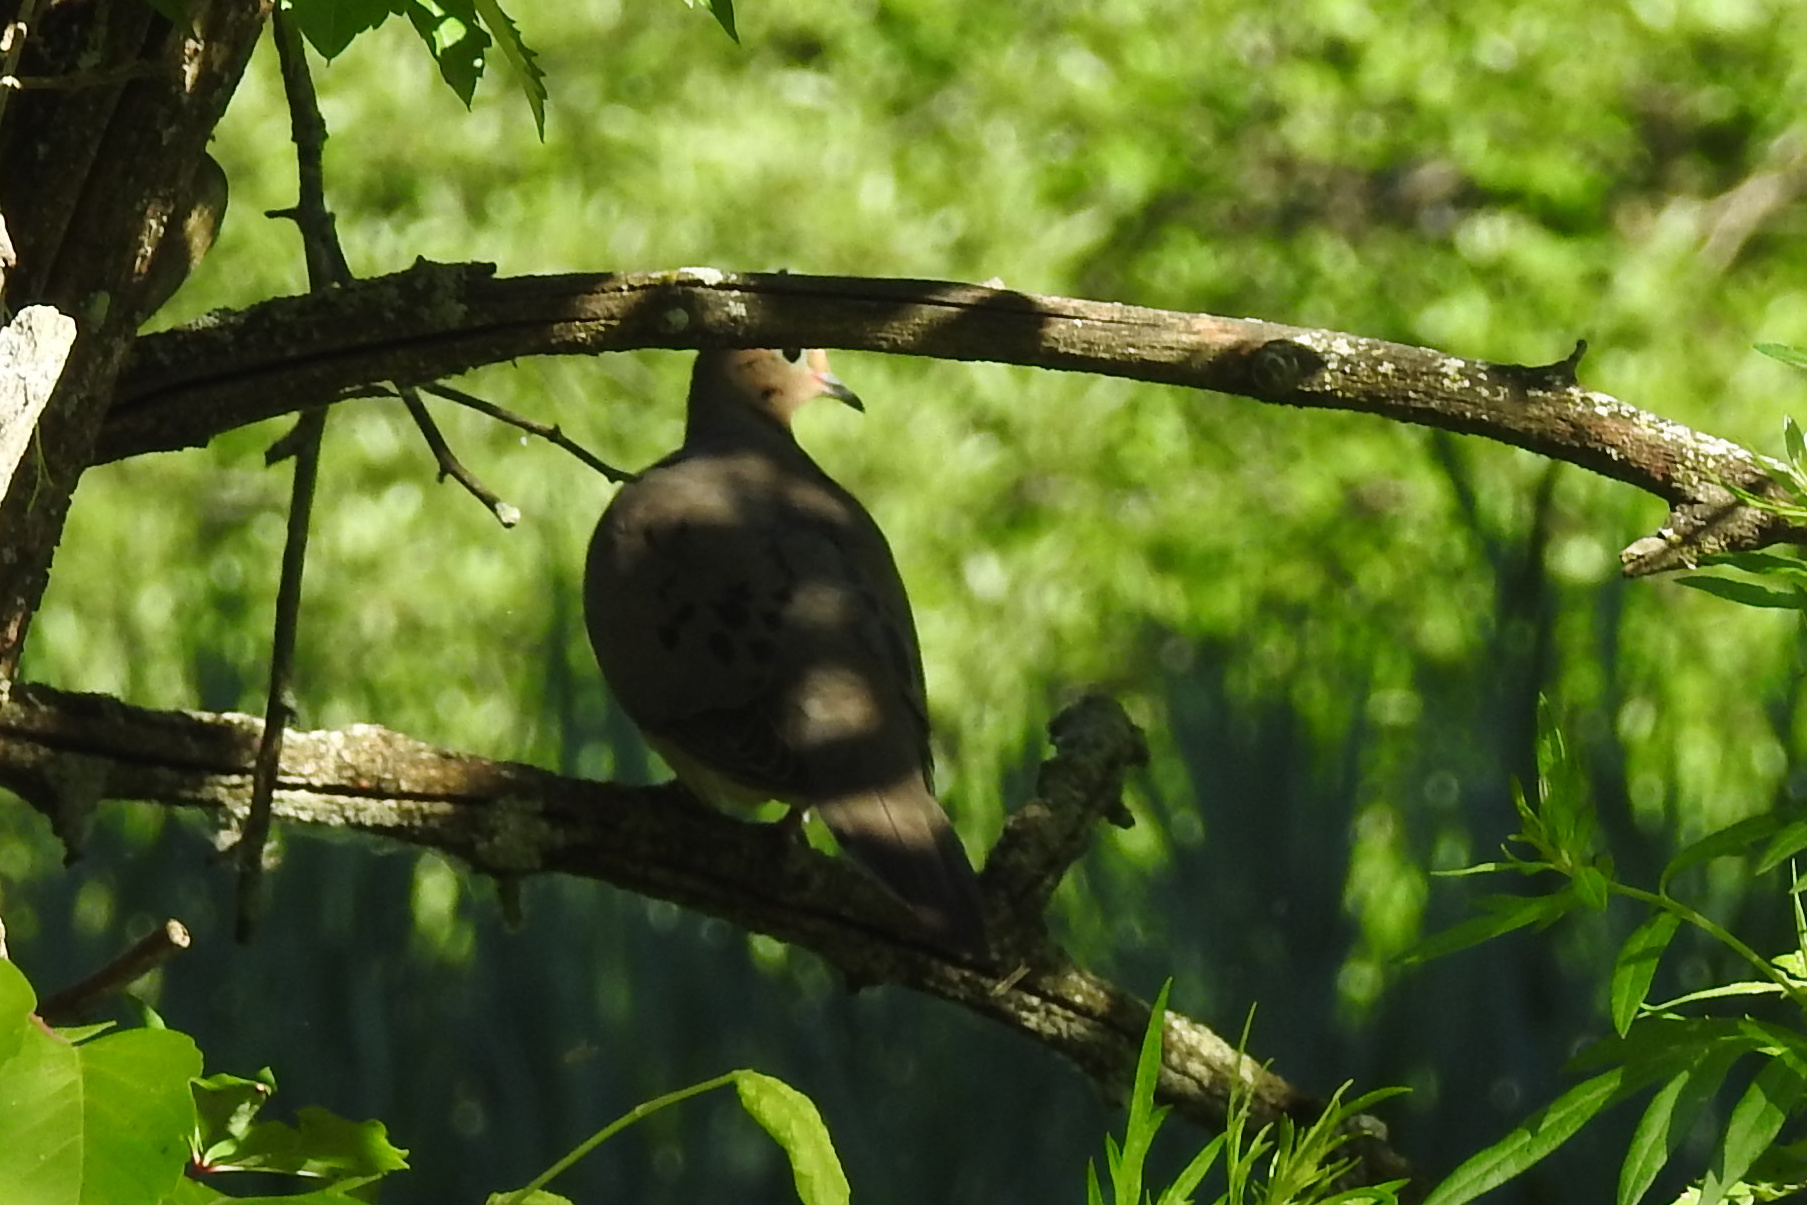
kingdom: Animalia
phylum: Chordata
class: Aves
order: Columbiformes
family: Columbidae
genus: Zenaida
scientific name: Zenaida macroura
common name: Mourning dove
